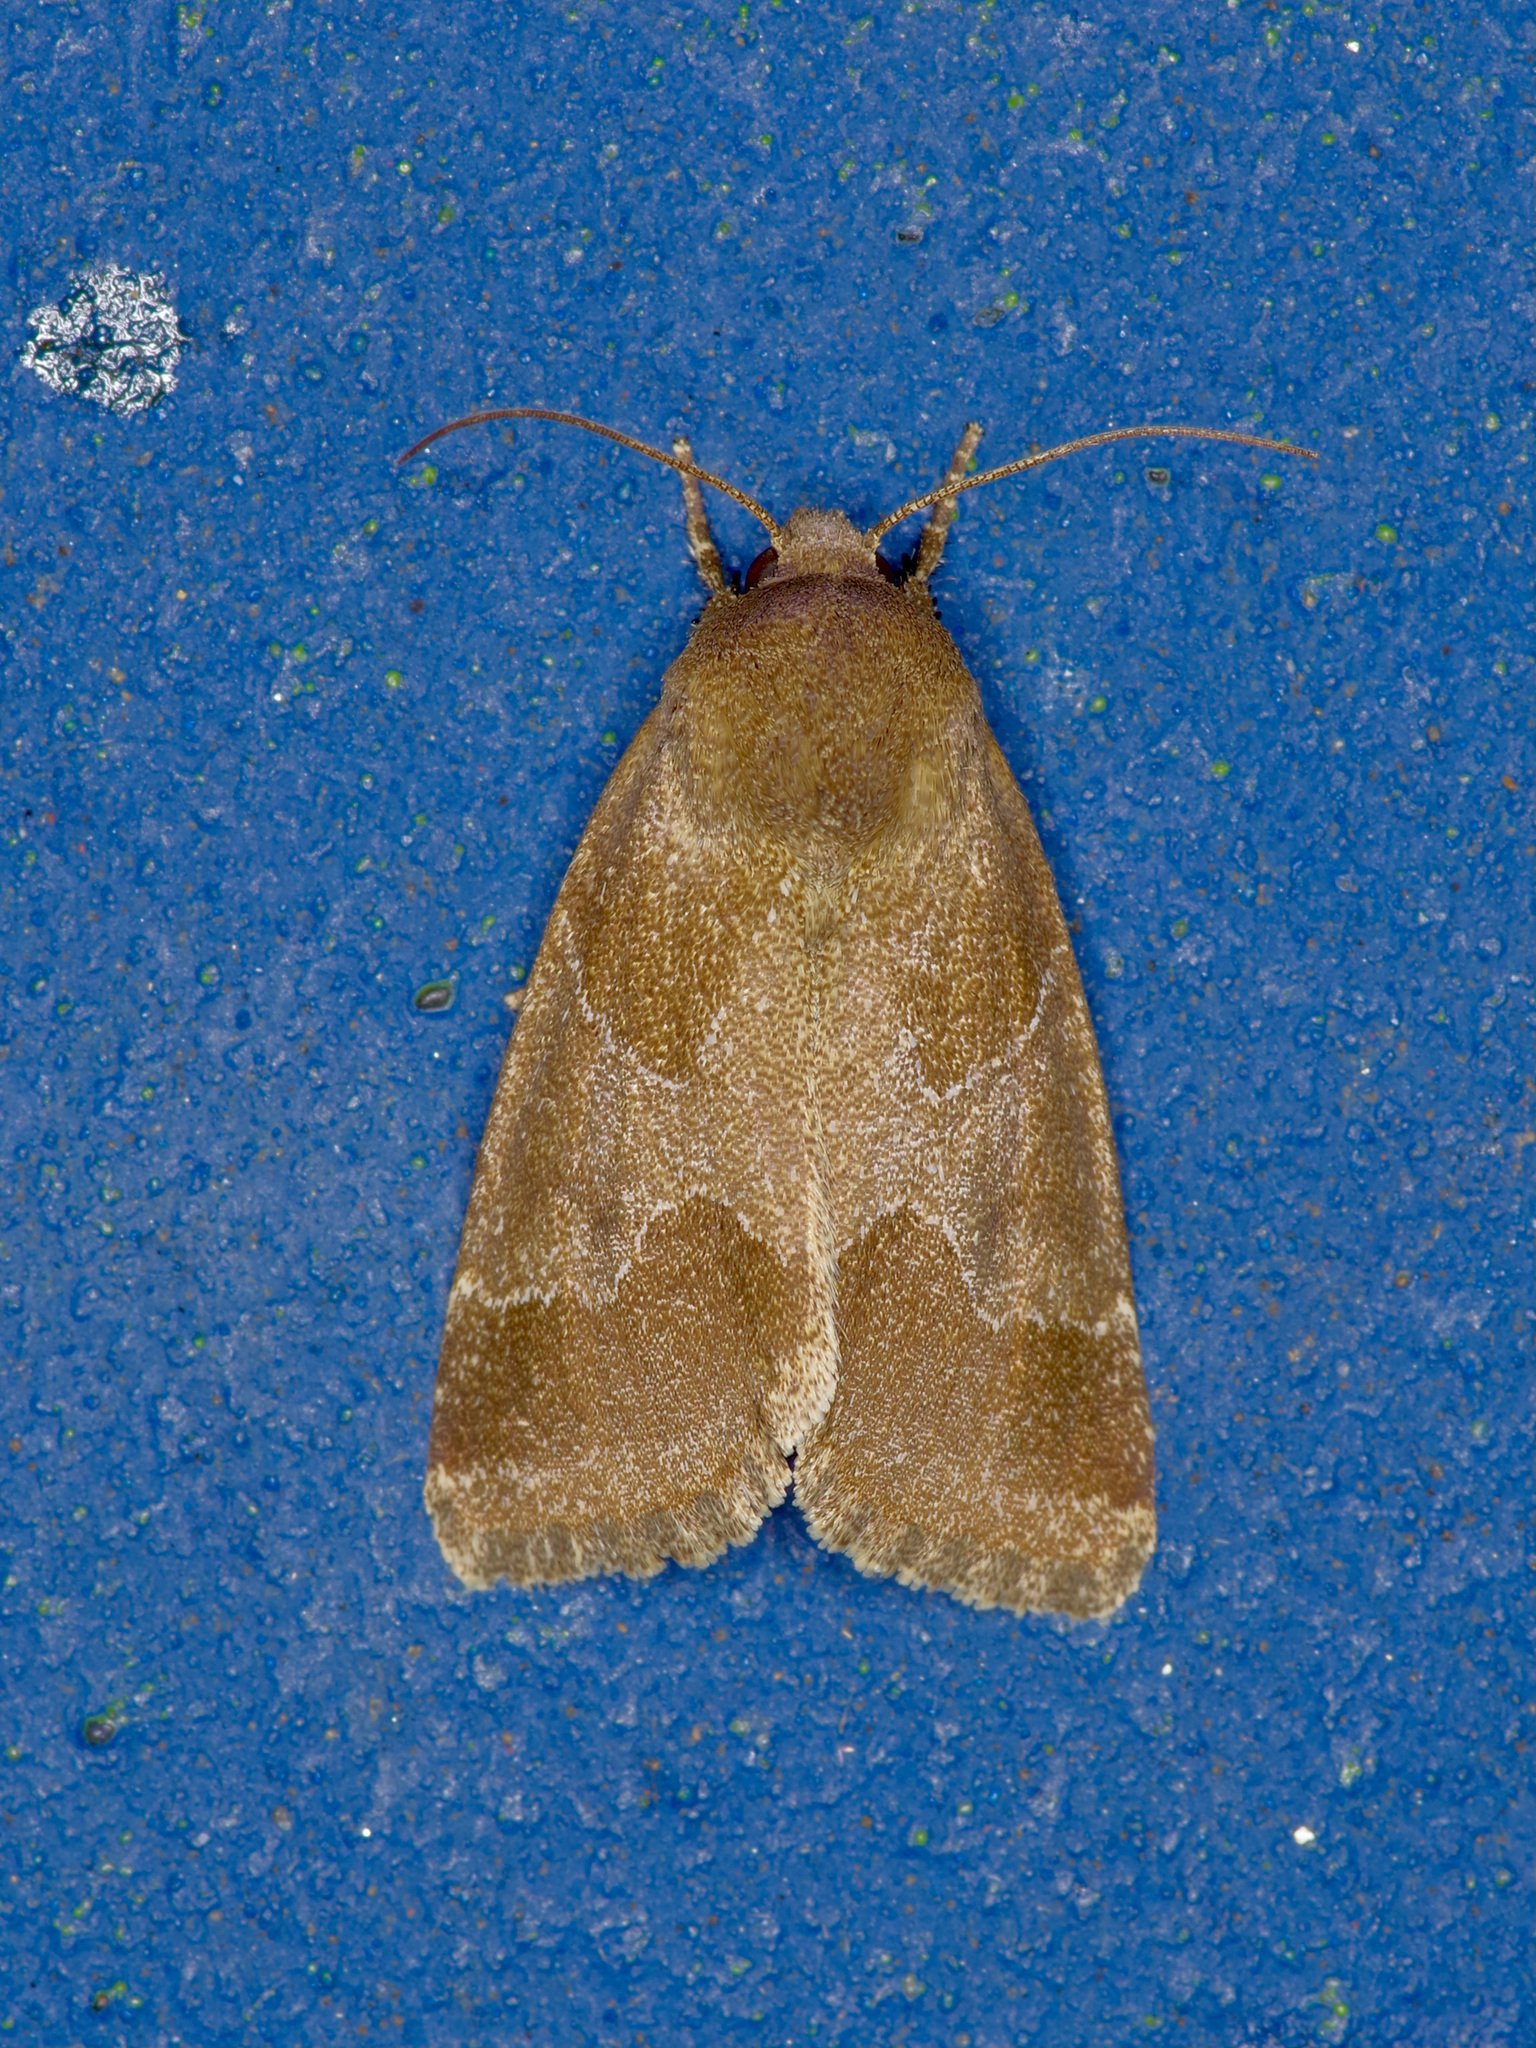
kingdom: Animalia
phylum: Arthropoda
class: Insecta
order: Lepidoptera
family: Noctuidae
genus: Schinia
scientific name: Schinia thoreaui
